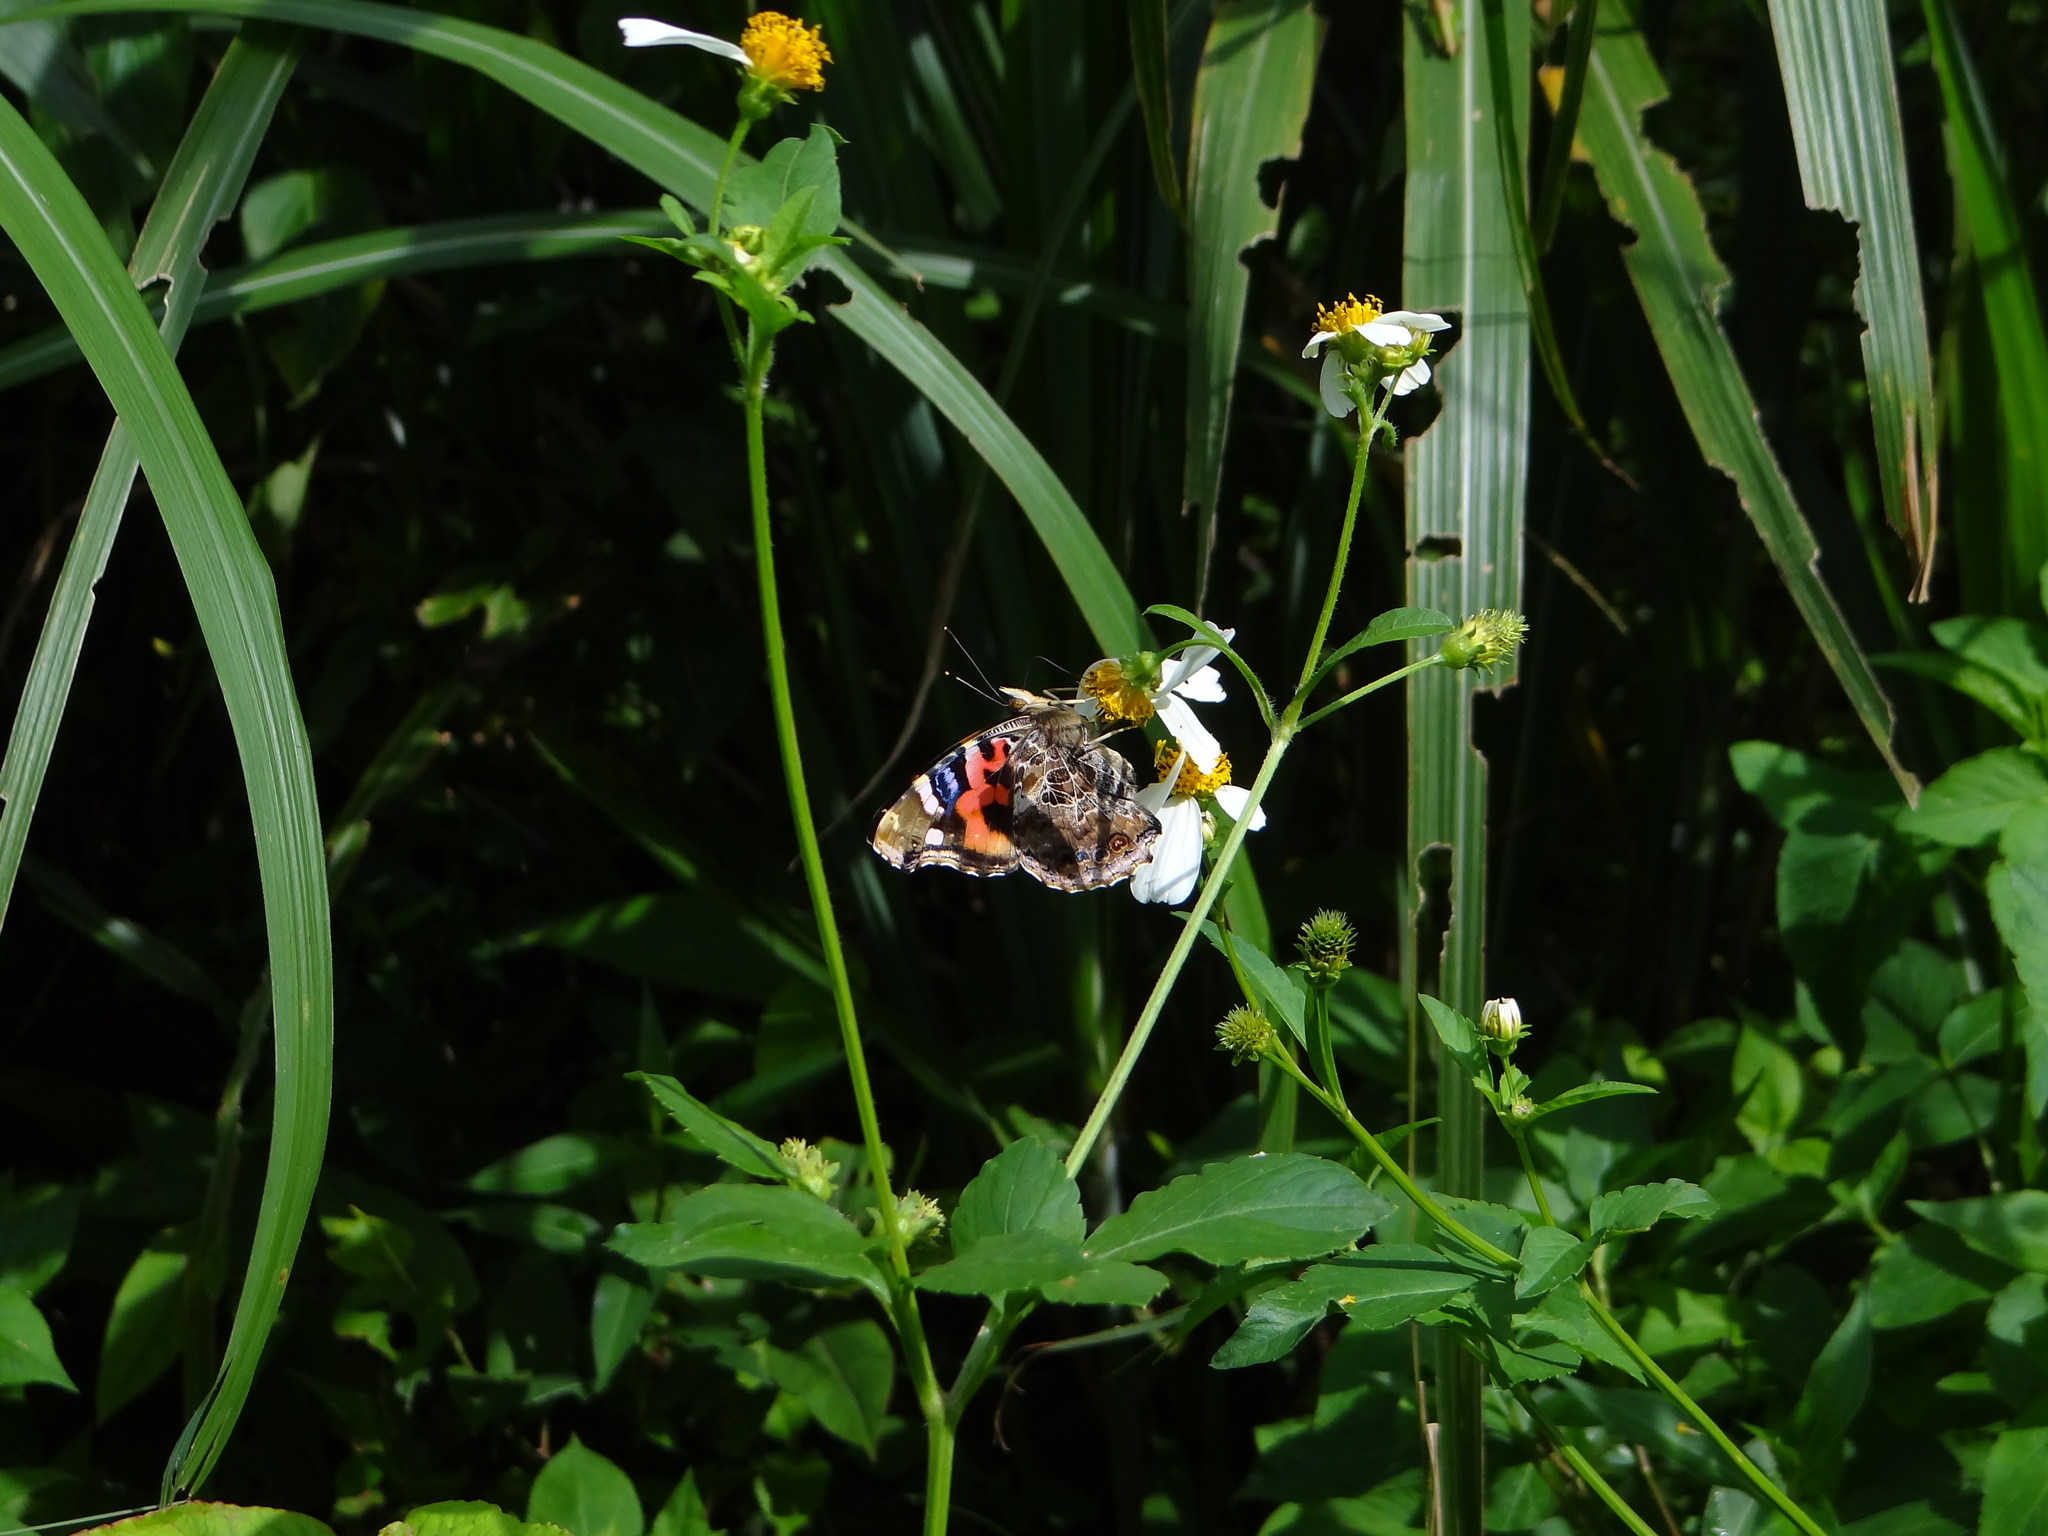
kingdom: Animalia
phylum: Arthropoda
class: Insecta
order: Lepidoptera
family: Nymphalidae
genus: Vanessa
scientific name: Vanessa indica
